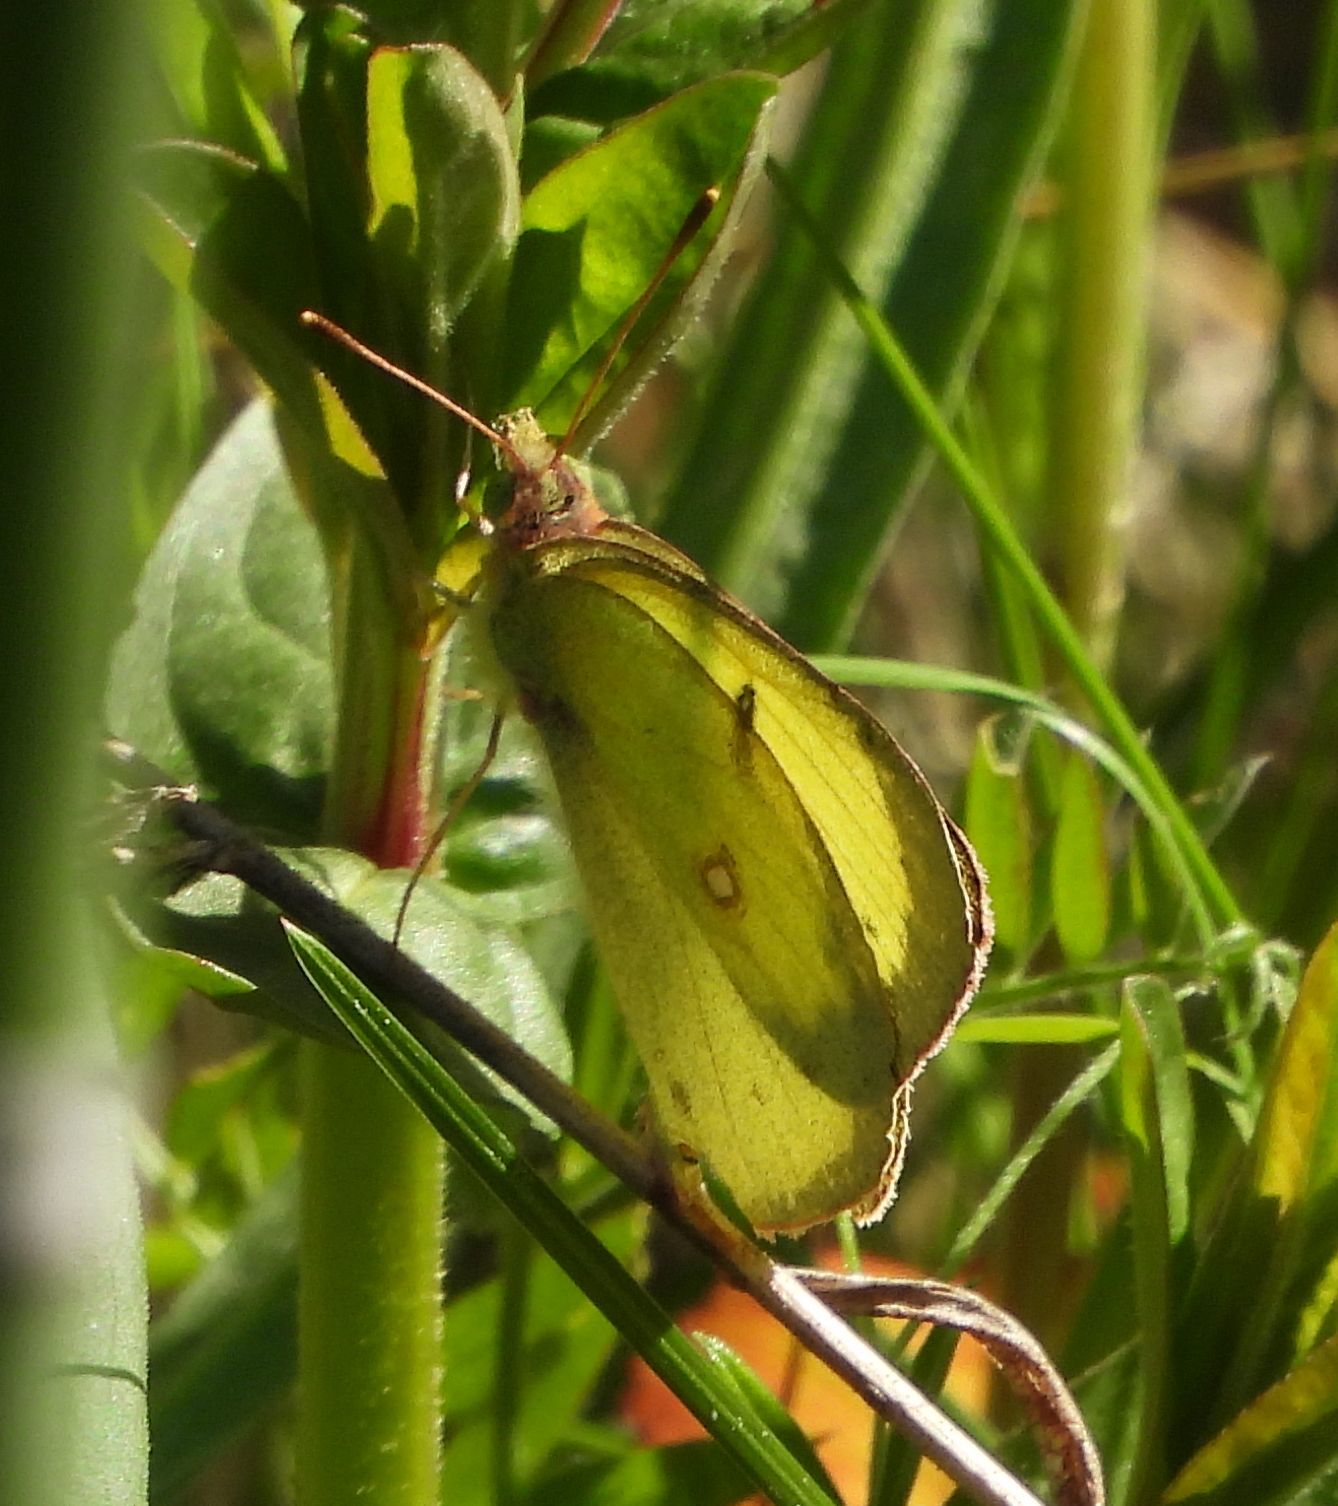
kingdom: Animalia
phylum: Arthropoda
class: Insecta
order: Lepidoptera
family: Pieridae
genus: Colias
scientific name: Colias philodice
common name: Clouded sulphur
